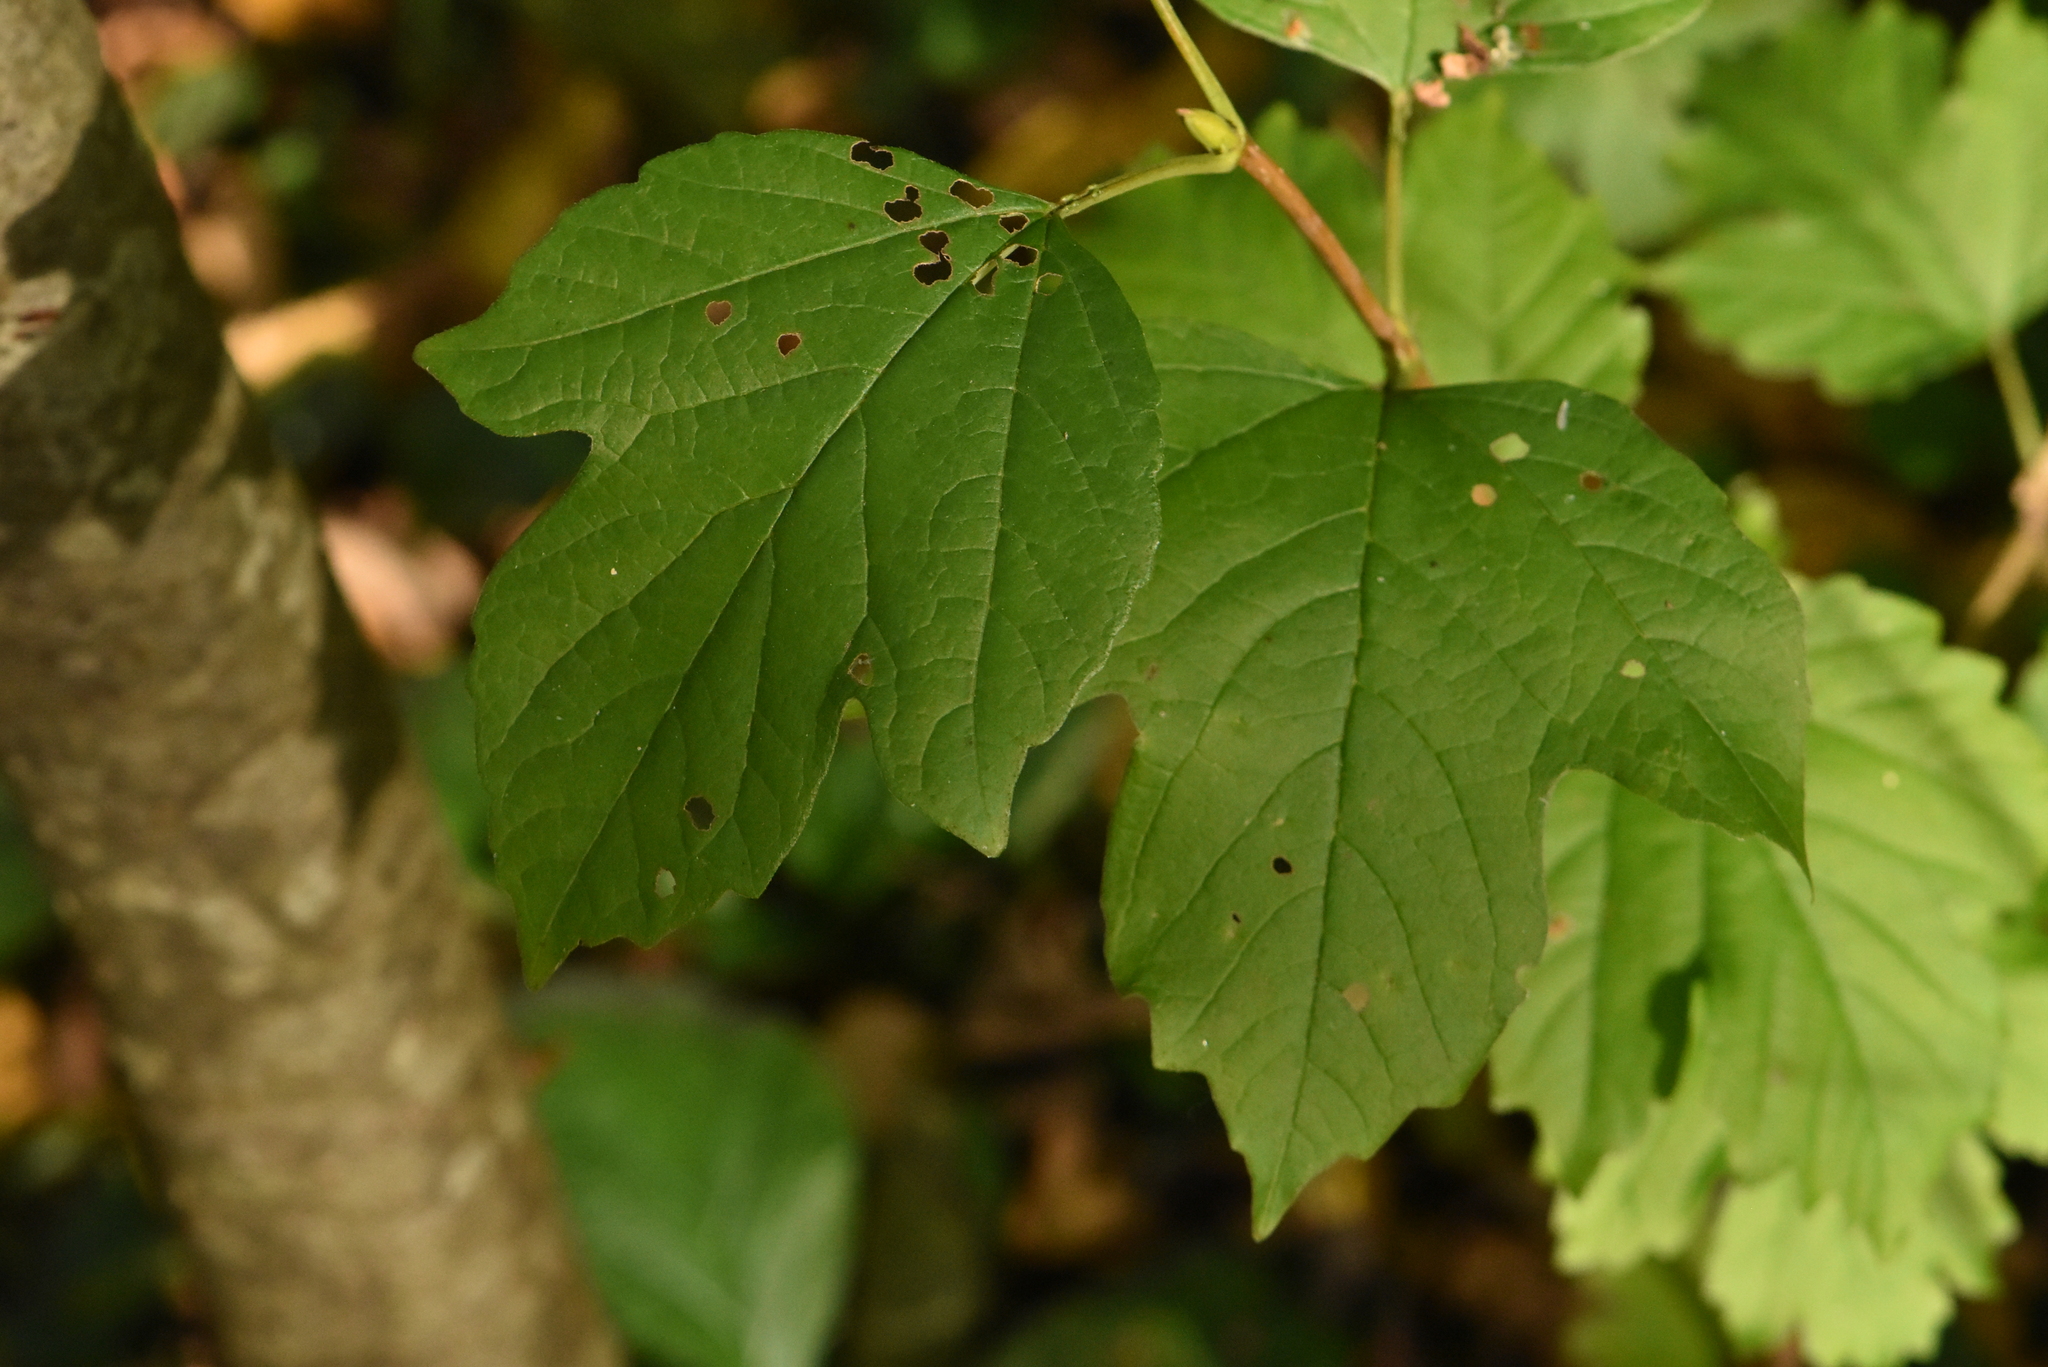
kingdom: Plantae
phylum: Tracheophyta
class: Magnoliopsida
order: Dipsacales
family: Viburnaceae
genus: Viburnum
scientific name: Viburnum opulus
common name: Guelder-rose
